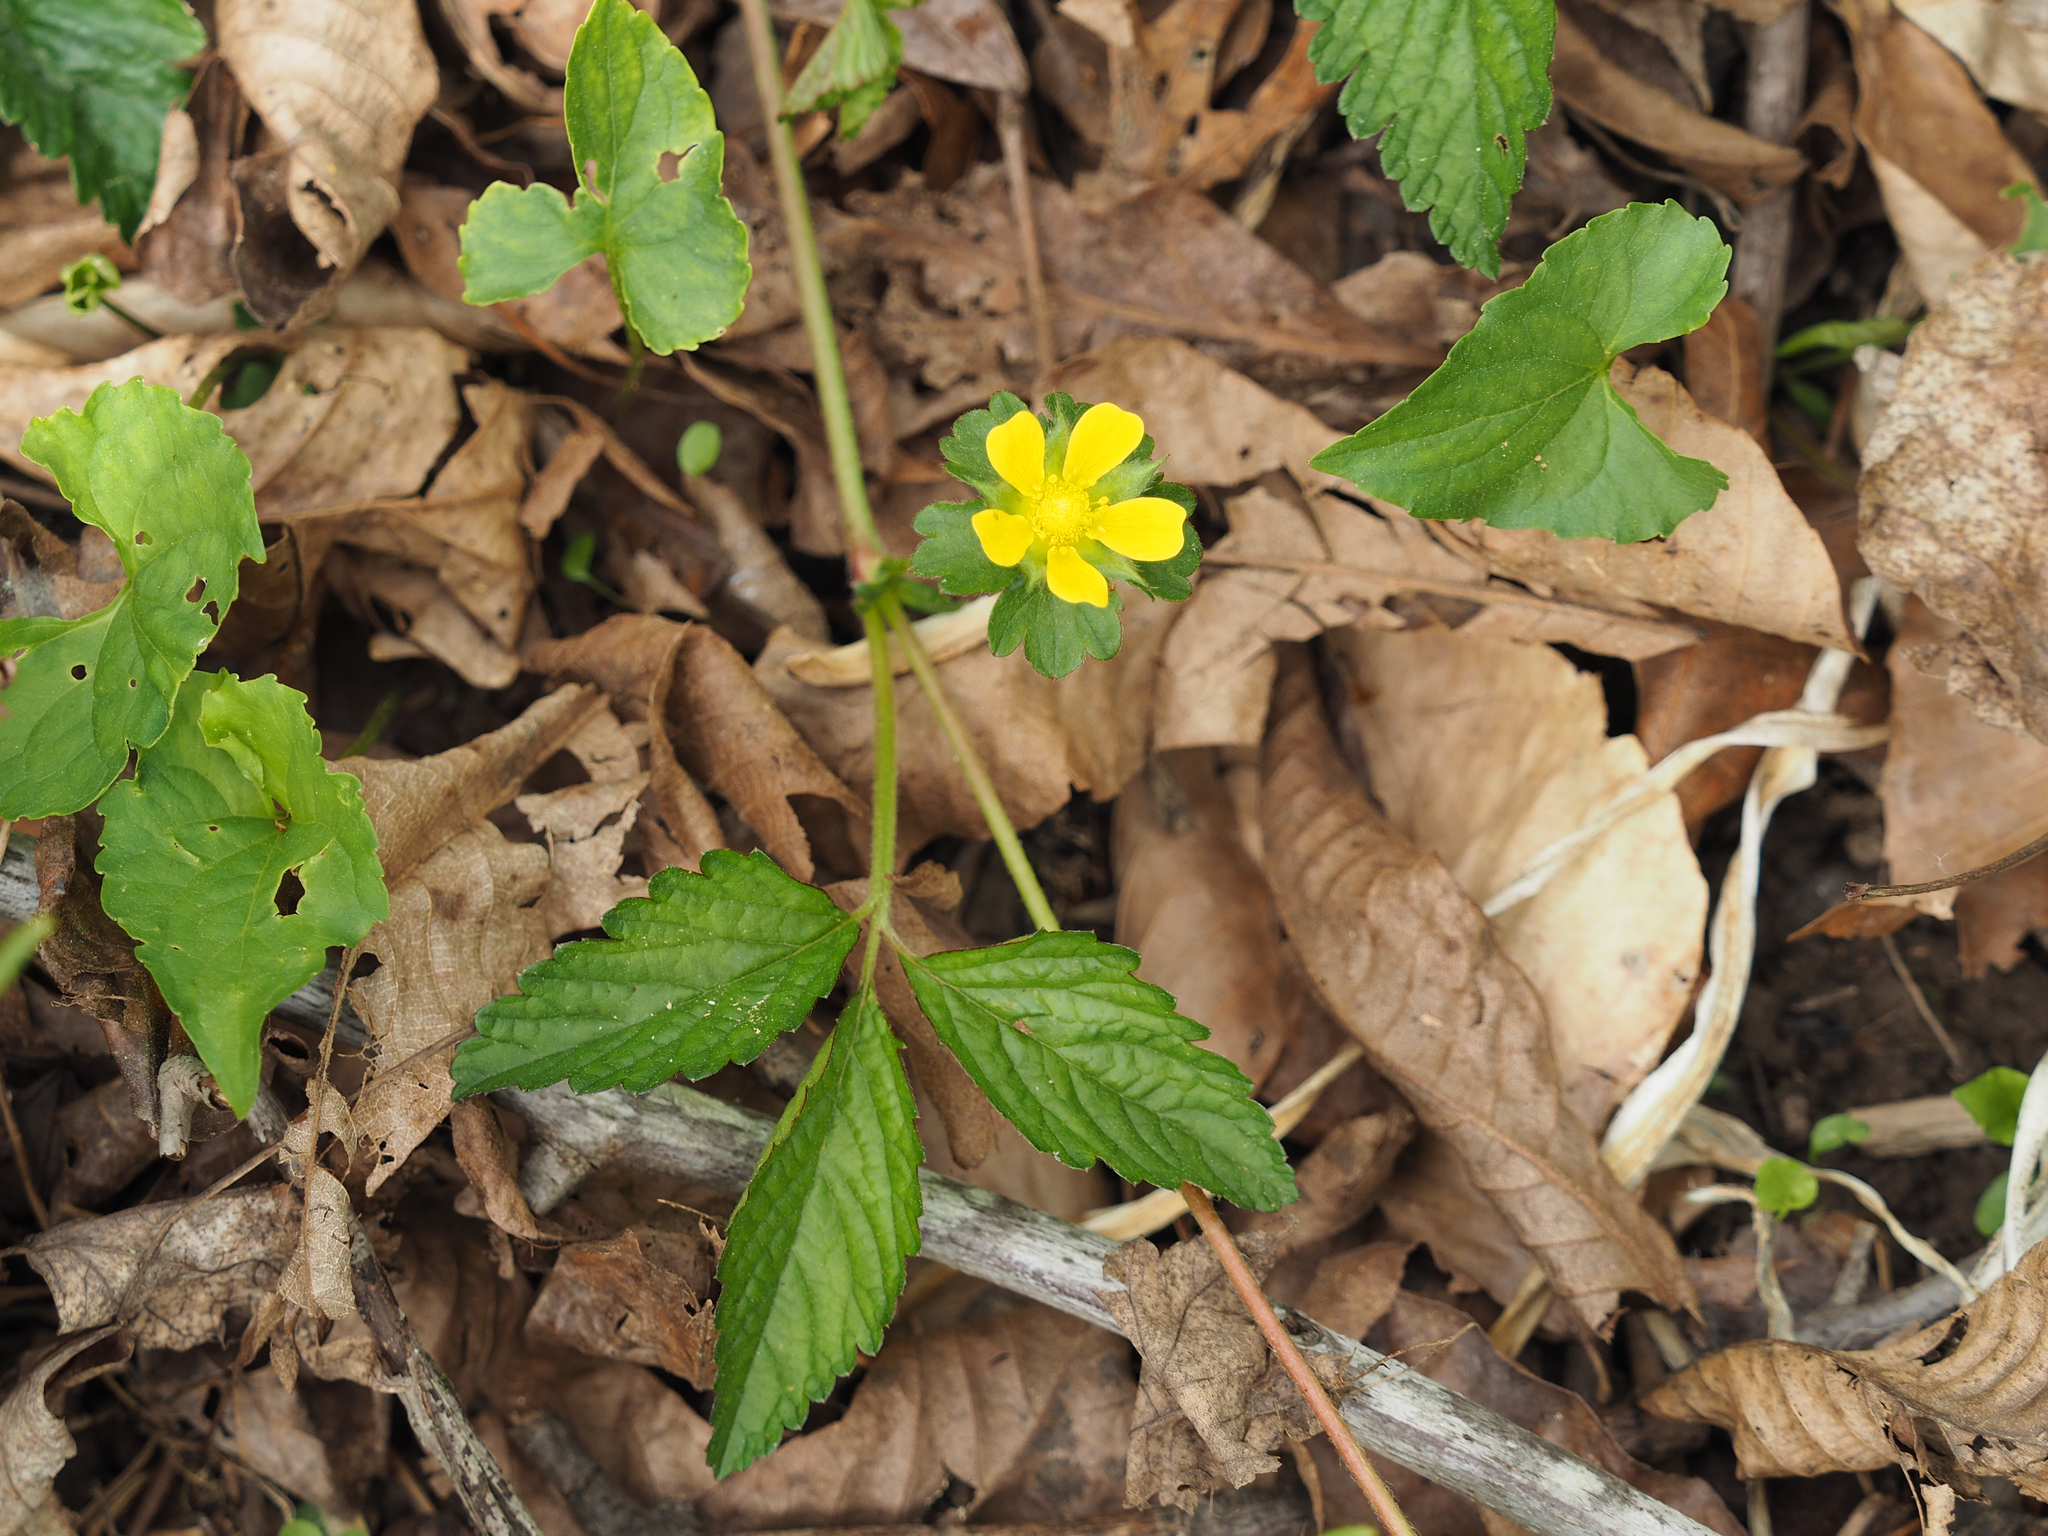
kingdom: Plantae
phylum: Tracheophyta
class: Magnoliopsida
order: Rosales
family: Rosaceae
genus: Potentilla
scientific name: Potentilla indica
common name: Yellow-flowered strawberry
